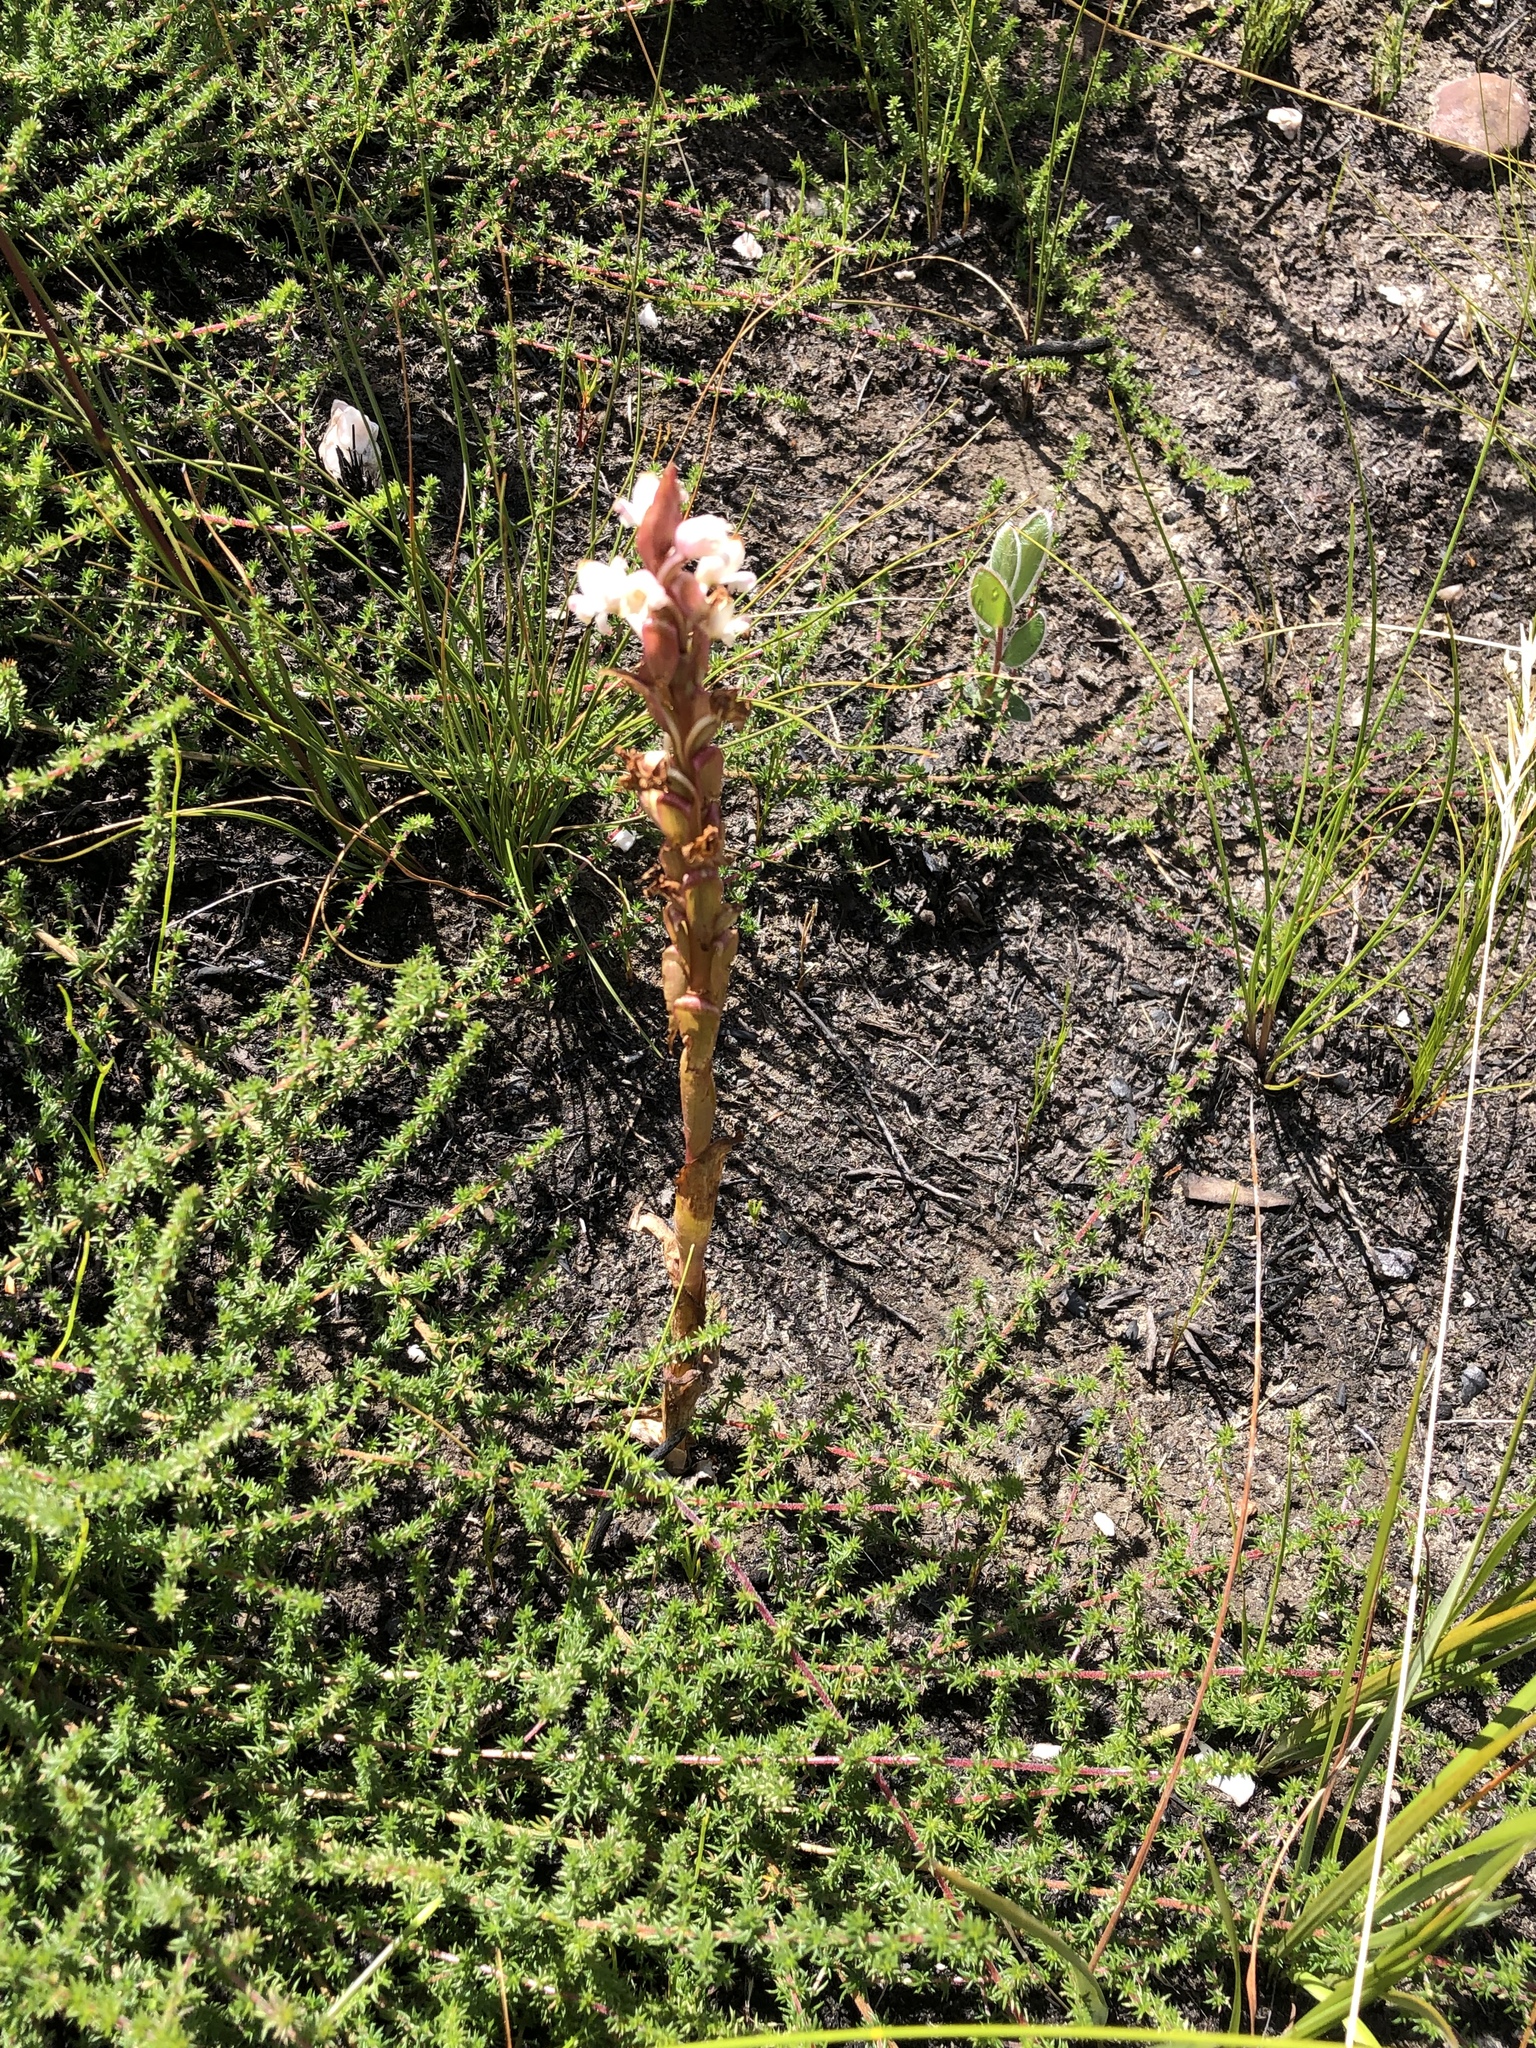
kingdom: Plantae
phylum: Tracheophyta
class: Liliopsida
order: Asparagales
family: Orchidaceae
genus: Satyrium
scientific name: Satyrium acuminatum
